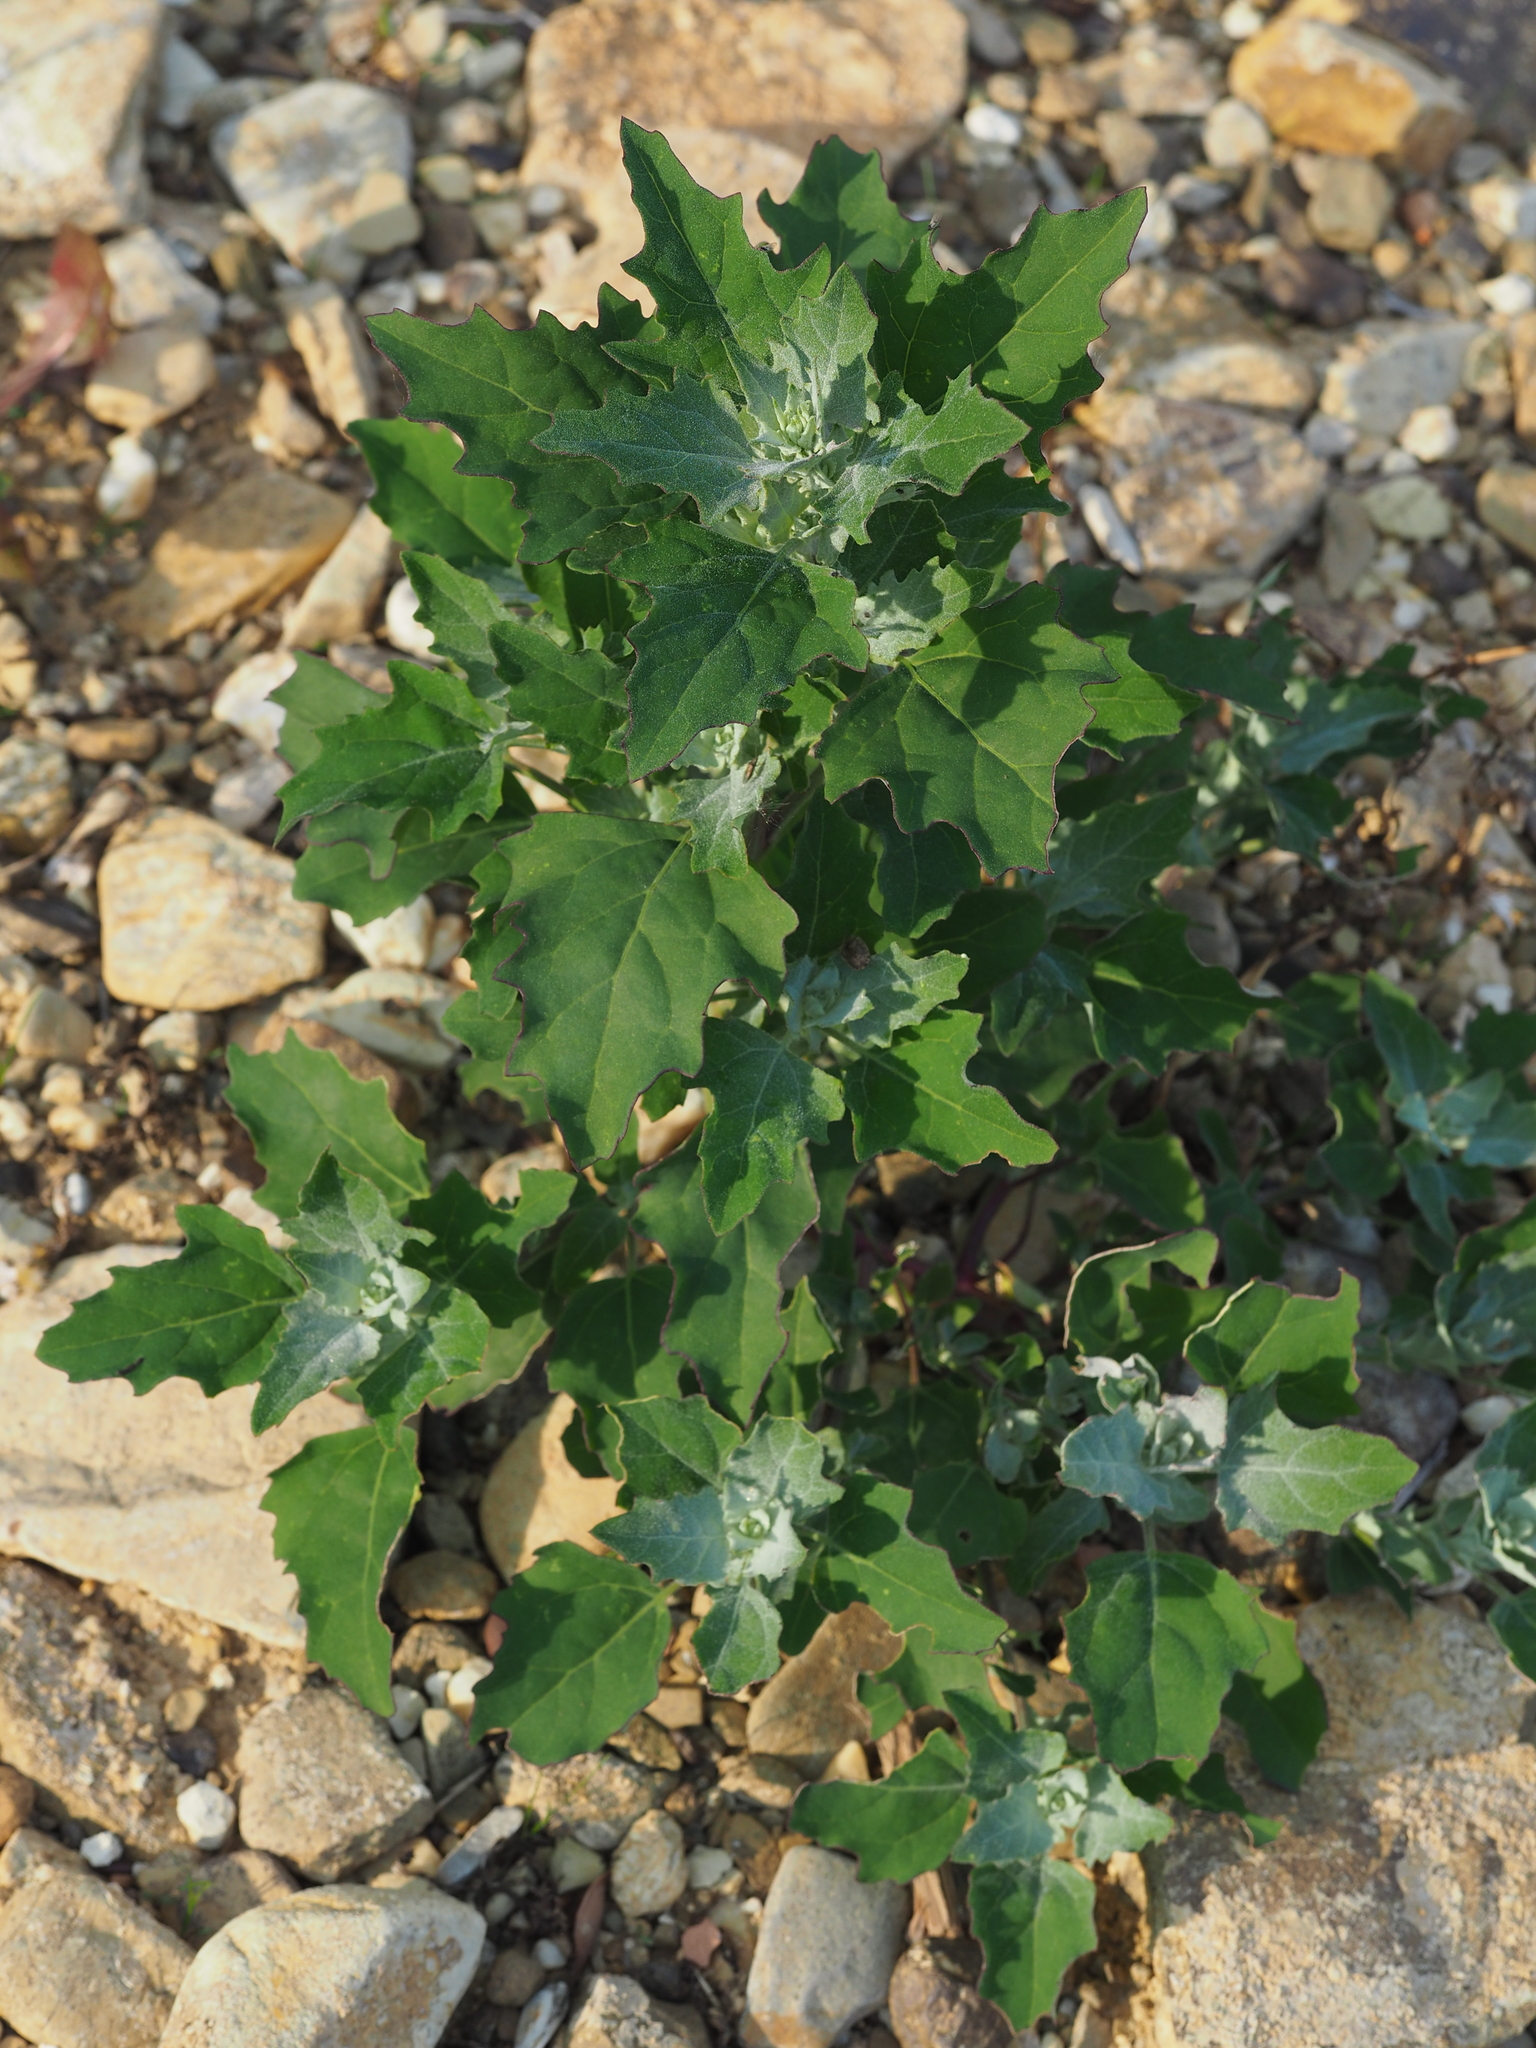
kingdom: Plantae
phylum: Tracheophyta
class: Magnoliopsida
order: Caryophyllales
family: Amaranthaceae
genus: Chenopodium
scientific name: Chenopodium album
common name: Fat-hen
